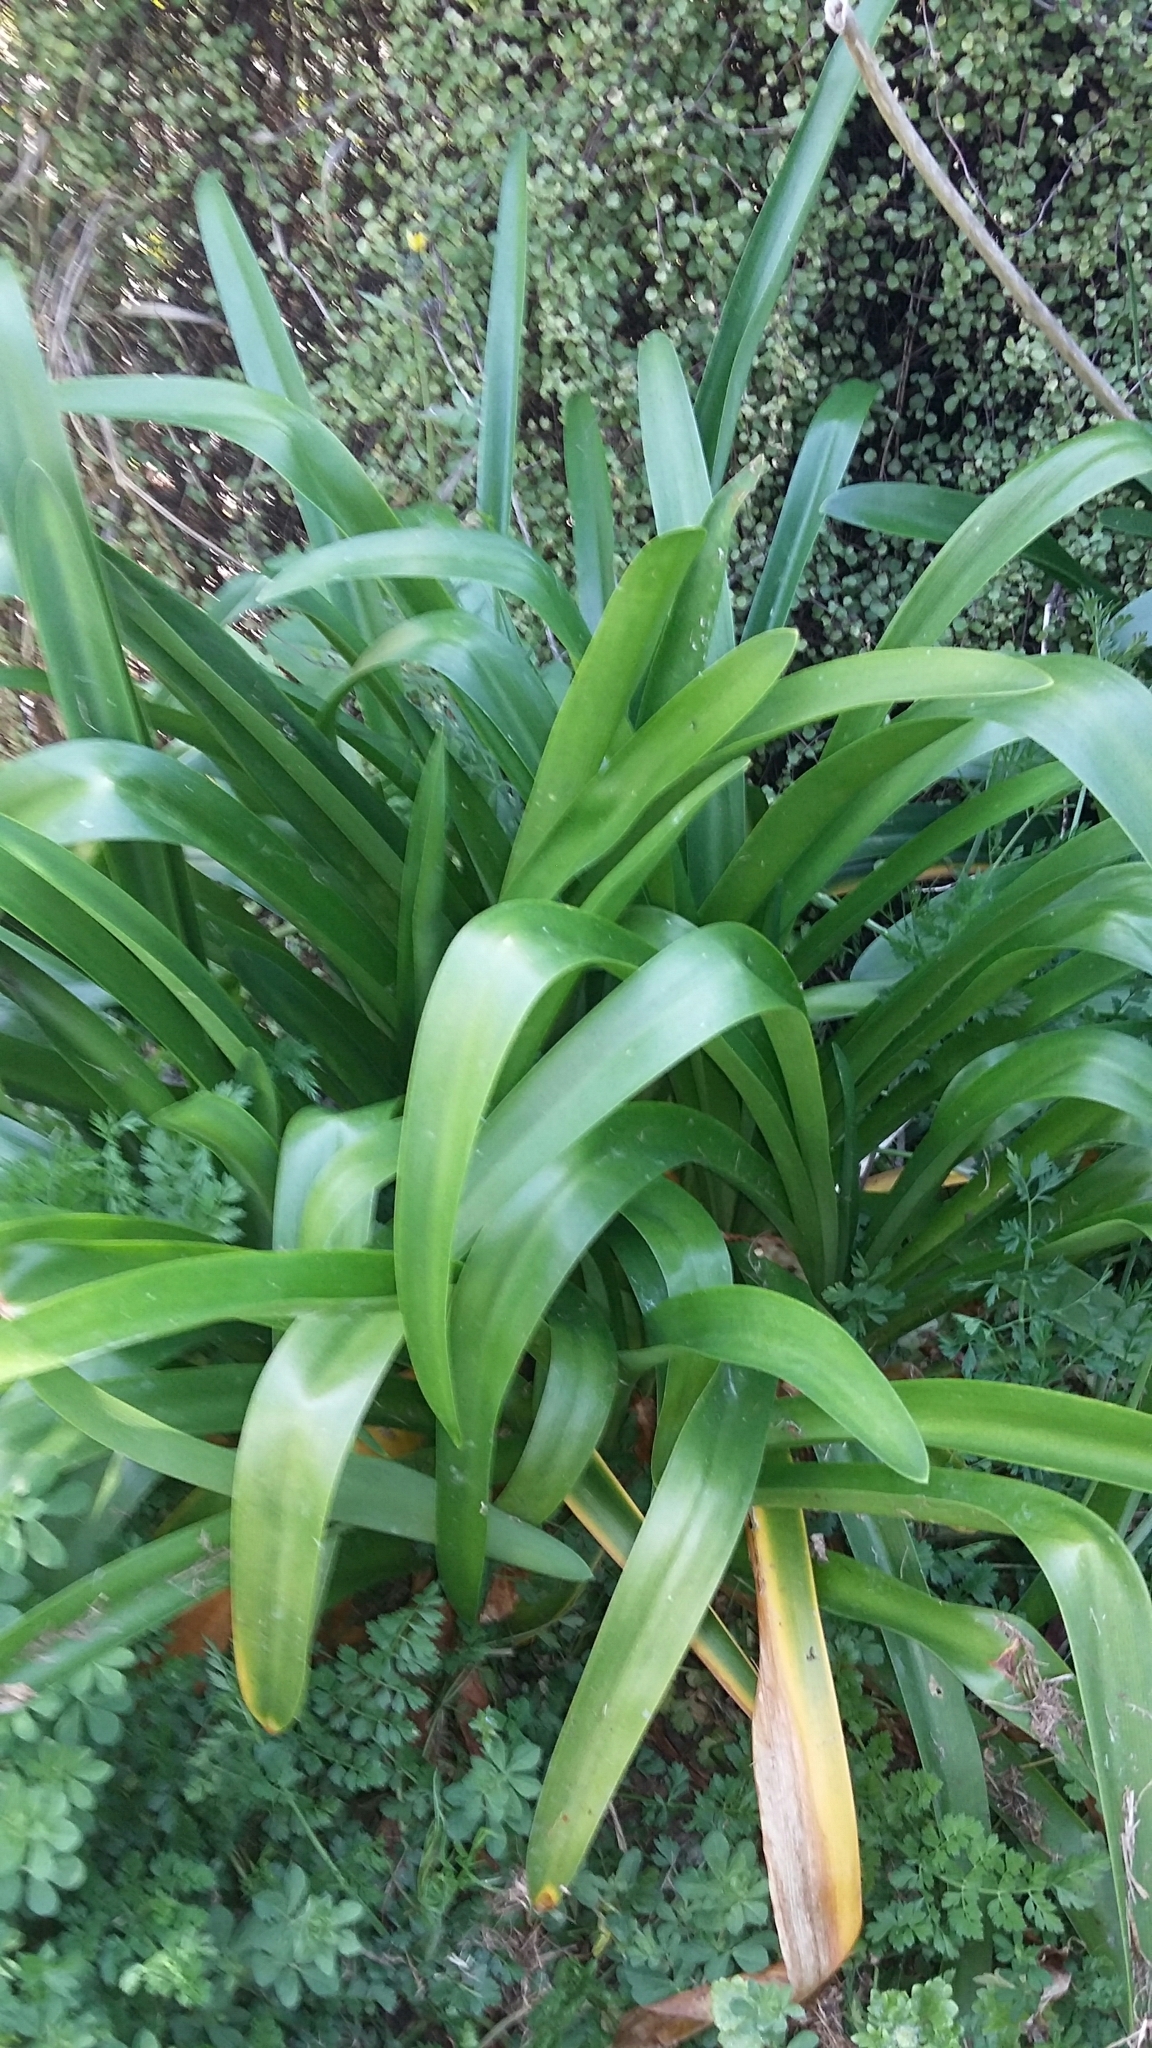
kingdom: Plantae
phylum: Tracheophyta
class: Liliopsida
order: Asparagales
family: Amaryllidaceae
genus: Agapanthus
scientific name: Agapanthus praecox
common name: African-lily
